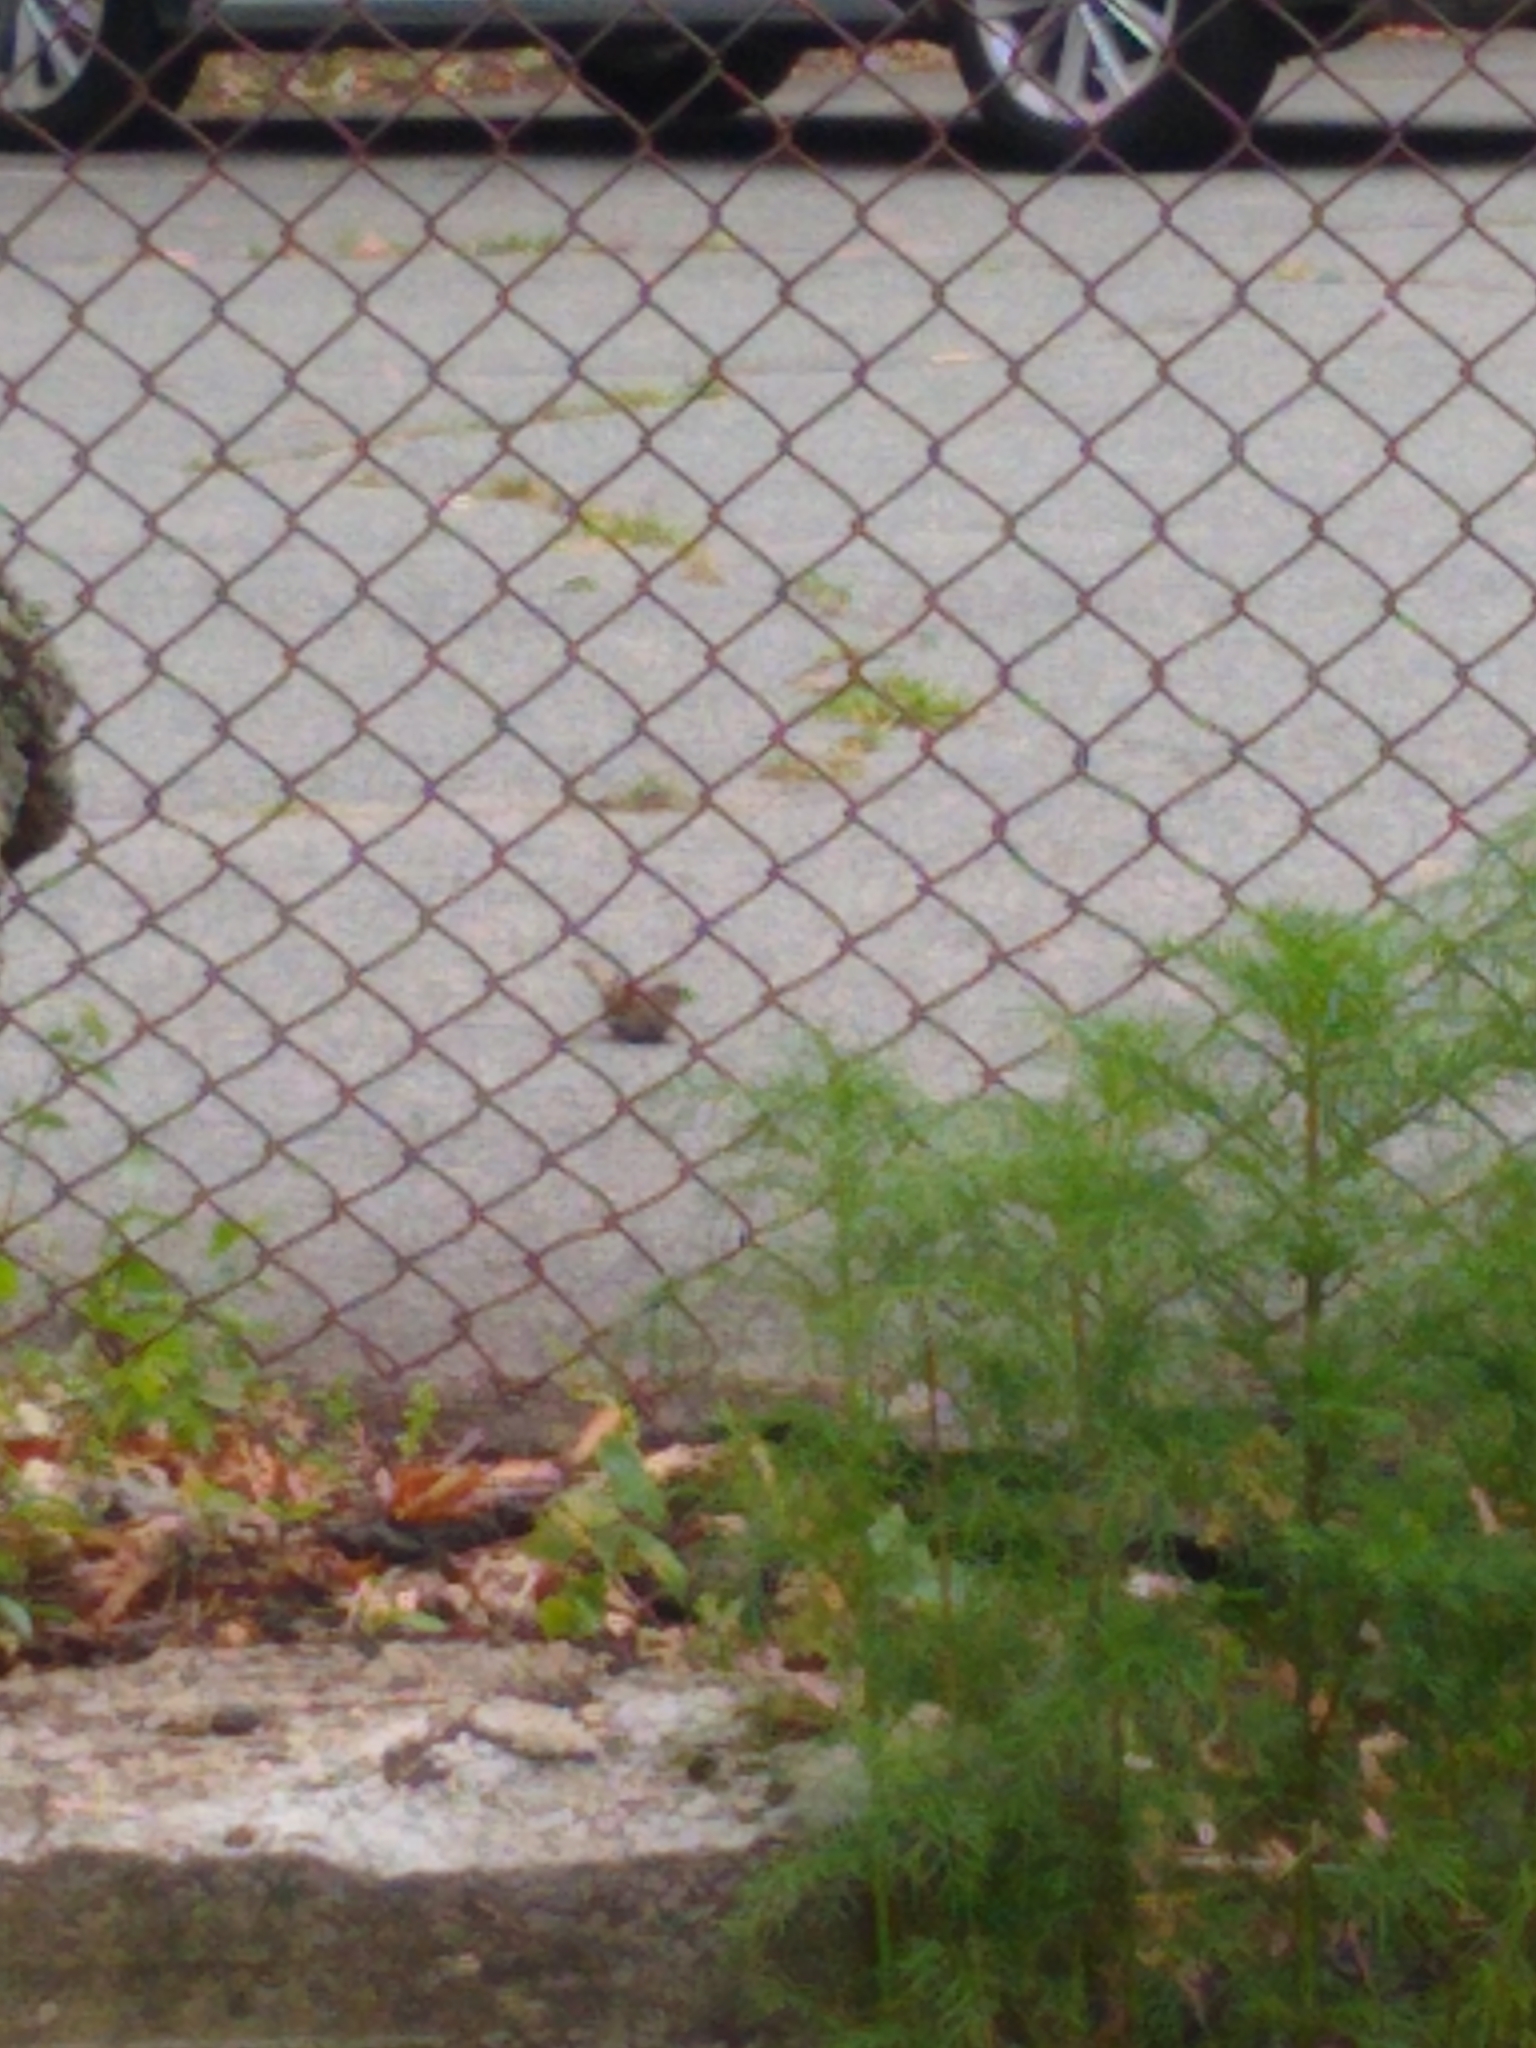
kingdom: Animalia
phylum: Chordata
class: Aves
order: Passeriformes
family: Passeridae
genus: Passer
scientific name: Passer domesticus
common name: House sparrow
